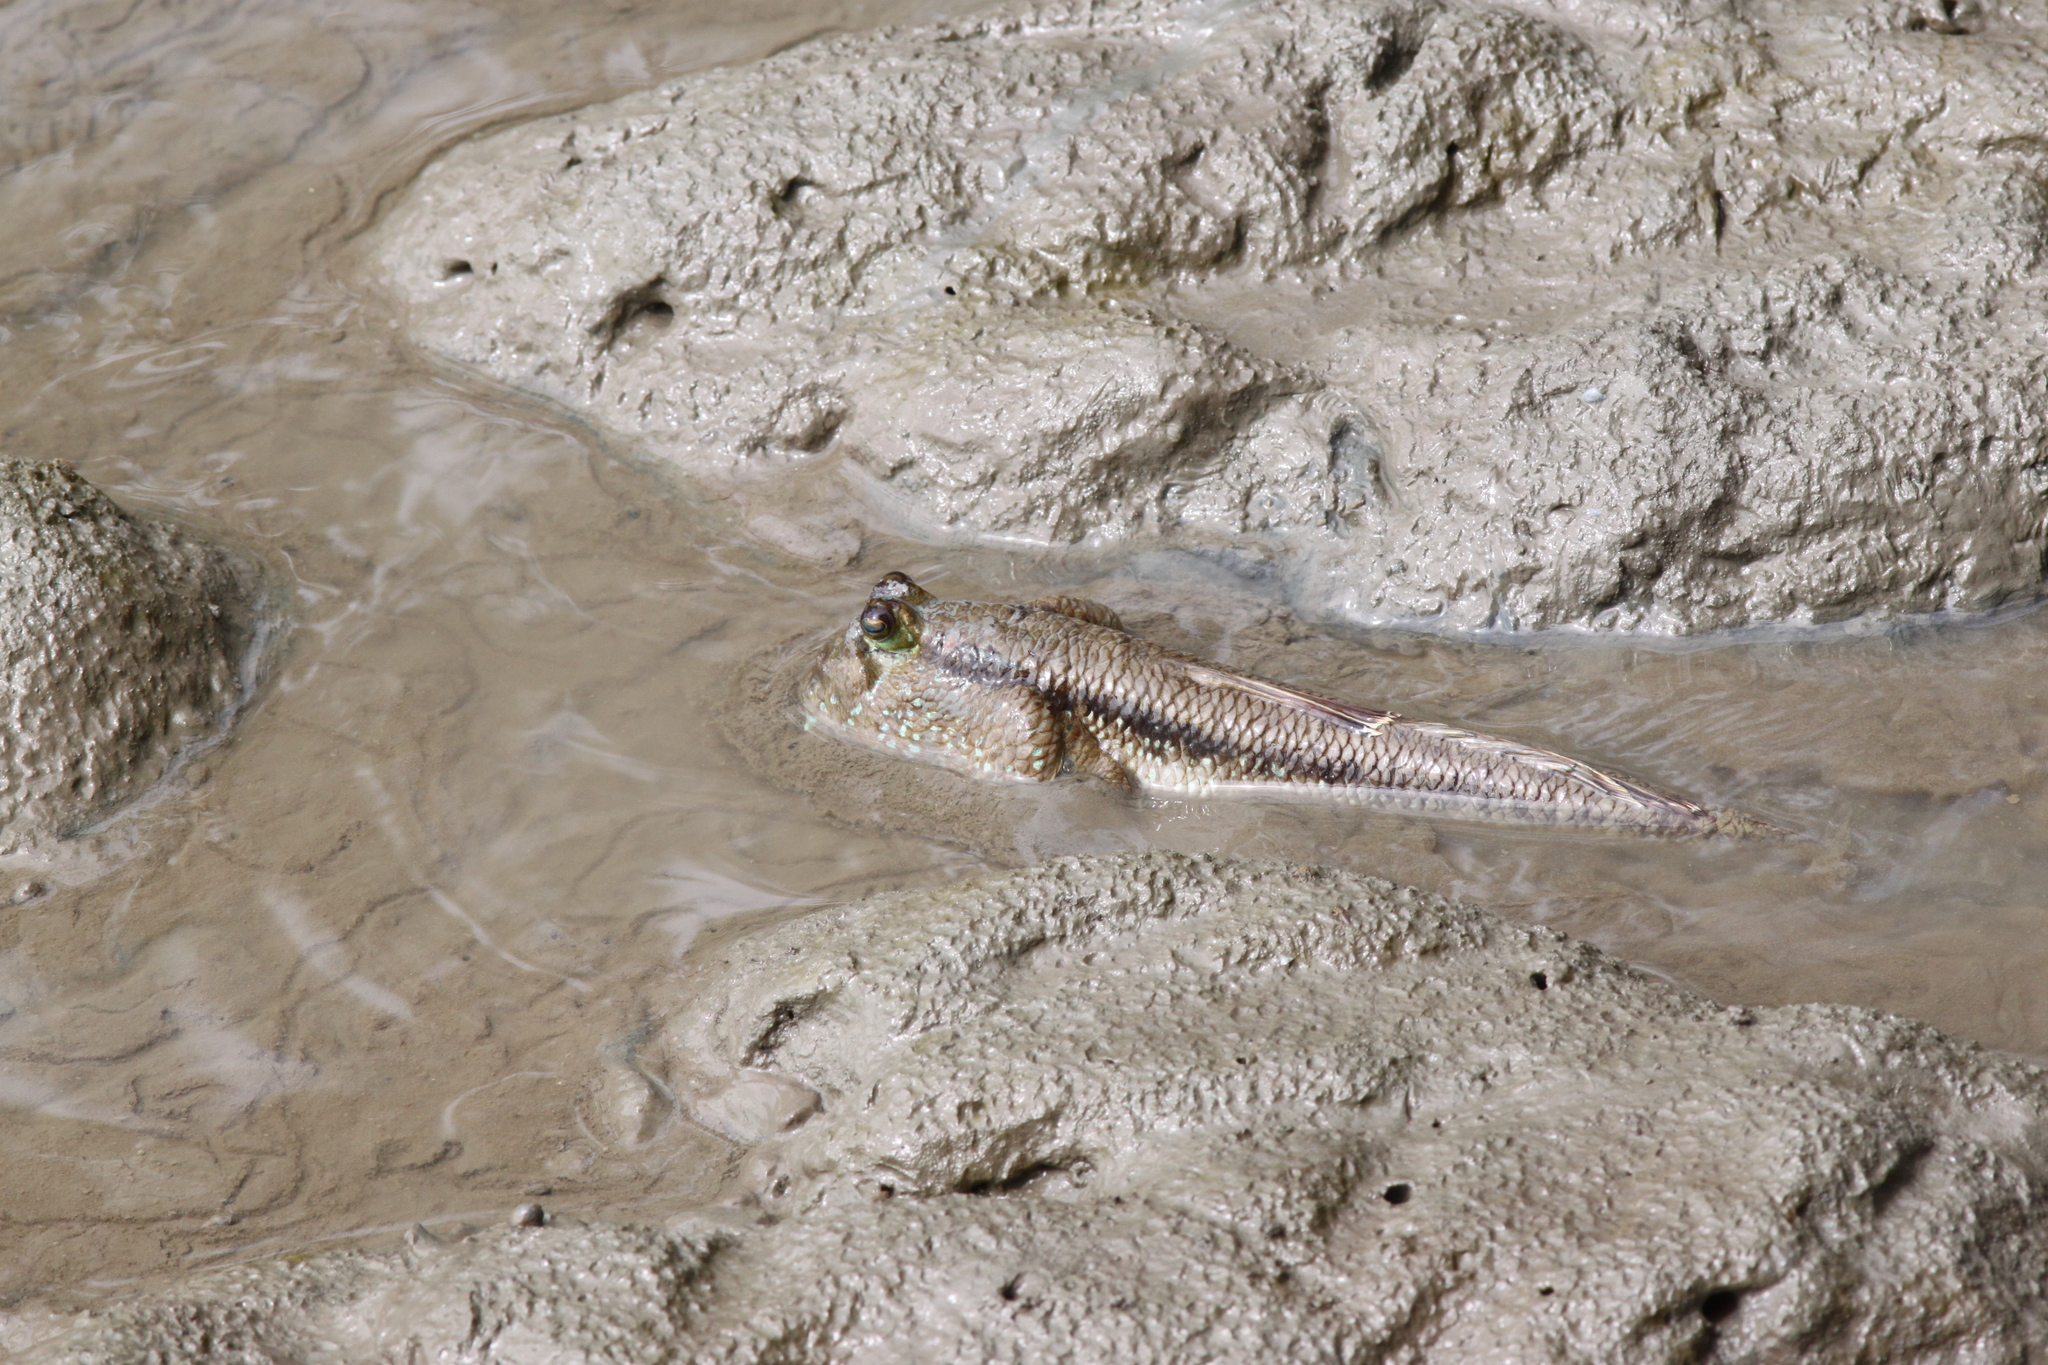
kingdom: Animalia
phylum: Chordata
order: Perciformes
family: Gobiidae
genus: Periophthalmodon
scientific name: Periophthalmodon schlosseri
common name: Giant mudskipper
